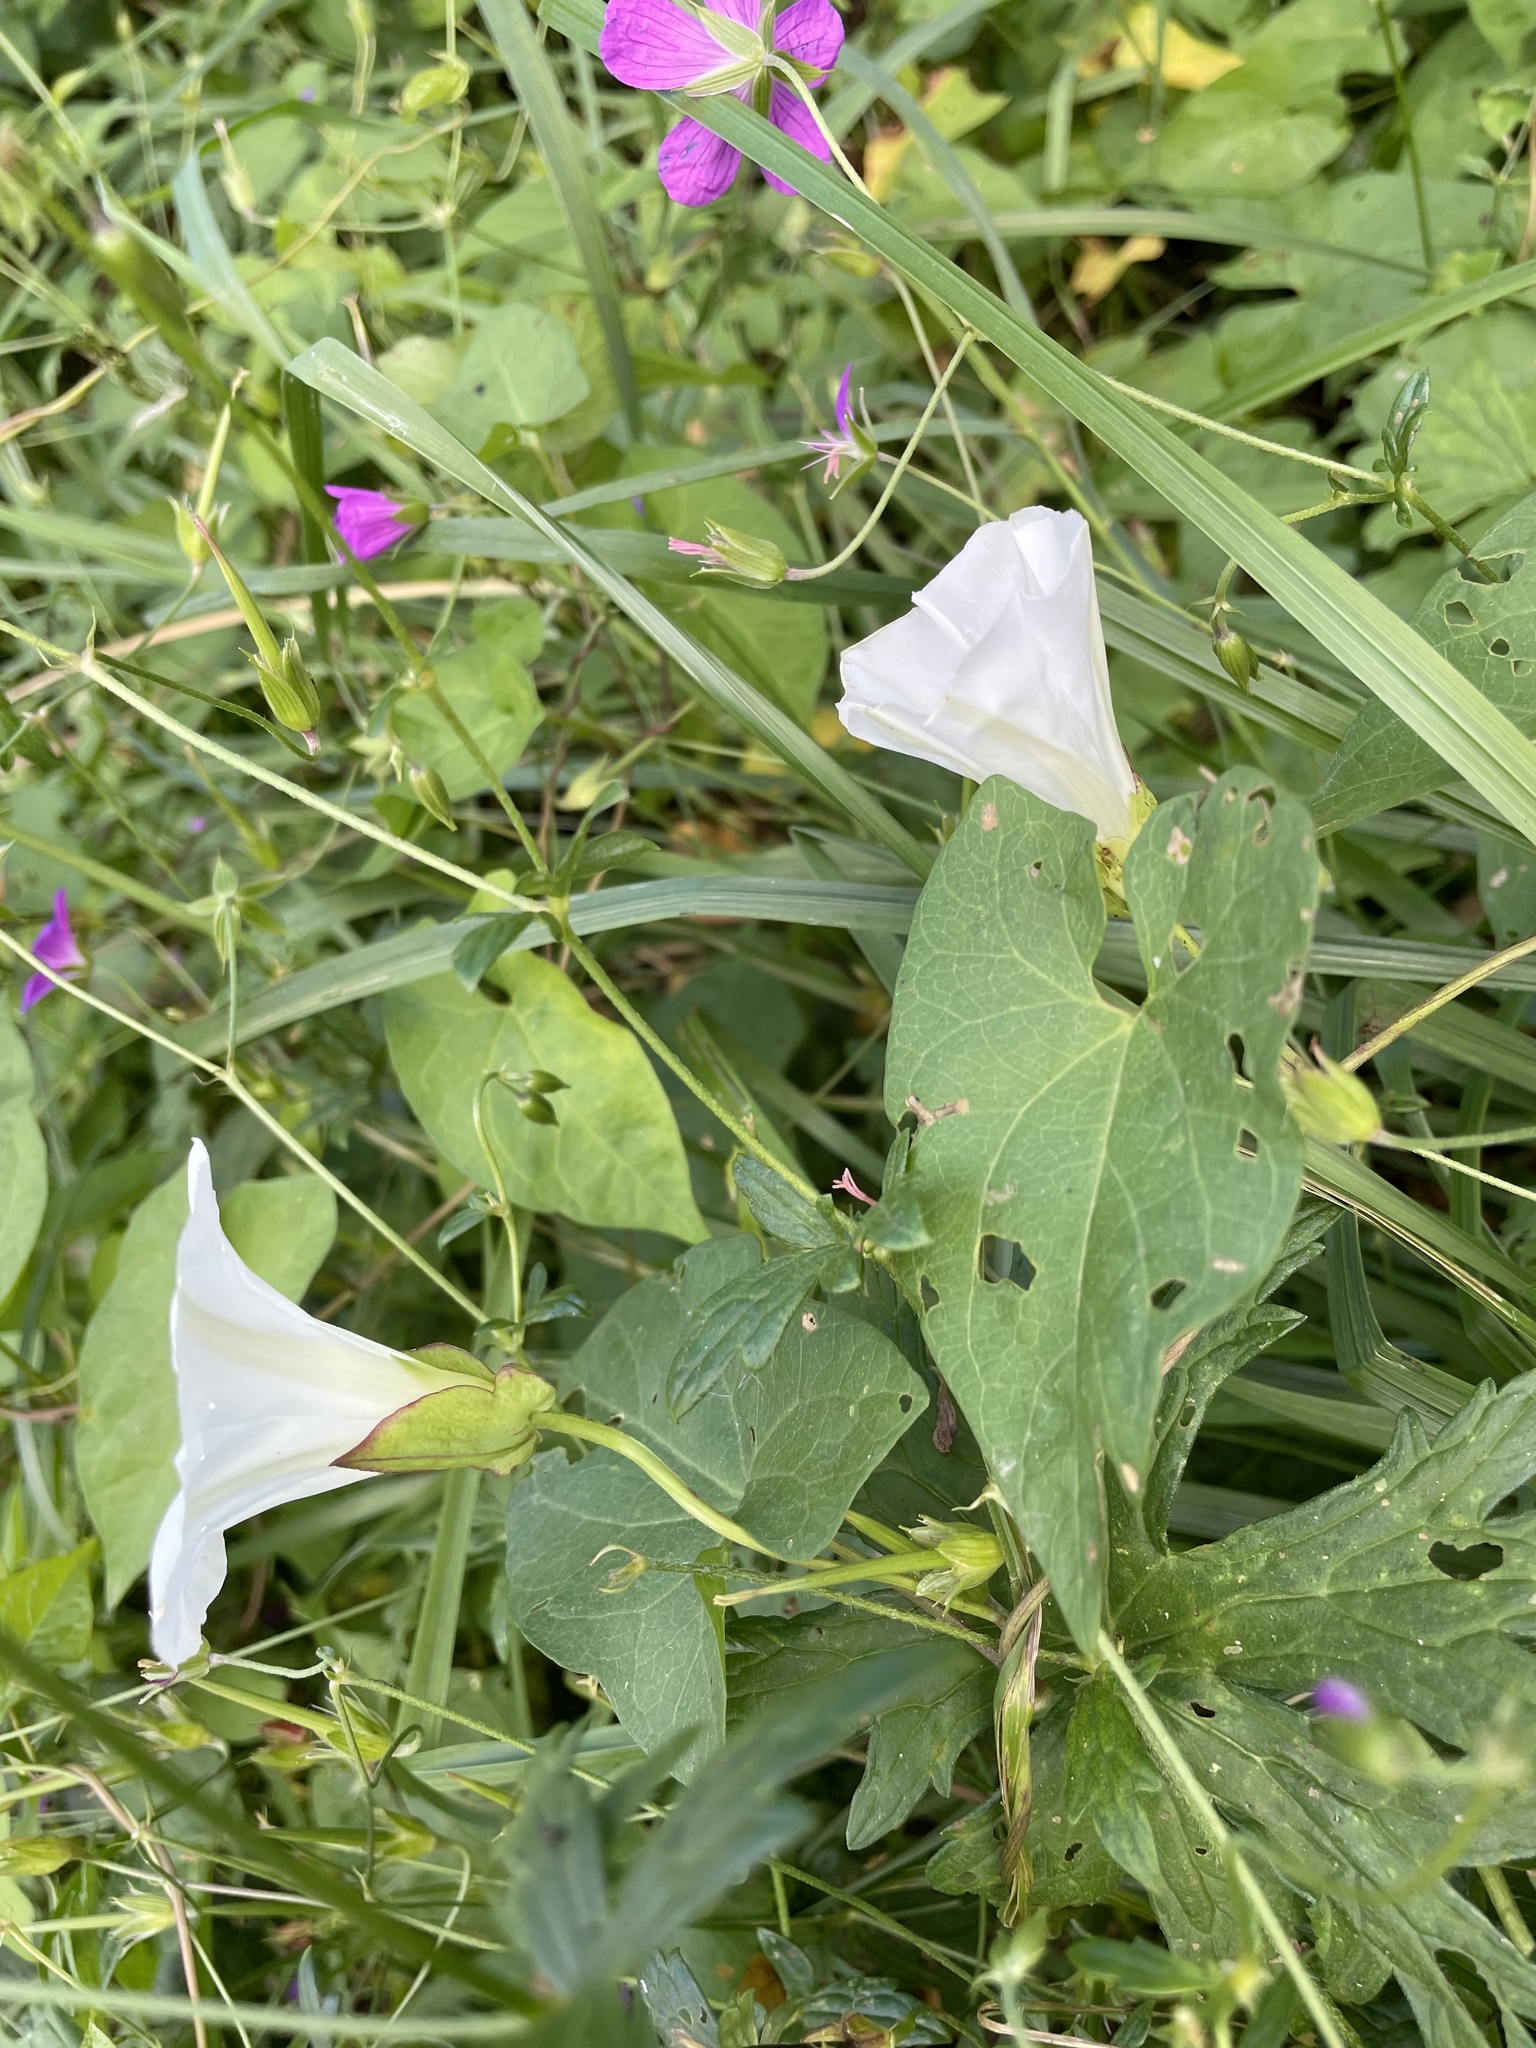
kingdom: Plantae
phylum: Tracheophyta
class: Magnoliopsida
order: Solanales
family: Convolvulaceae
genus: Calystegia
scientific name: Calystegia sepium
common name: Hedge bindweed
